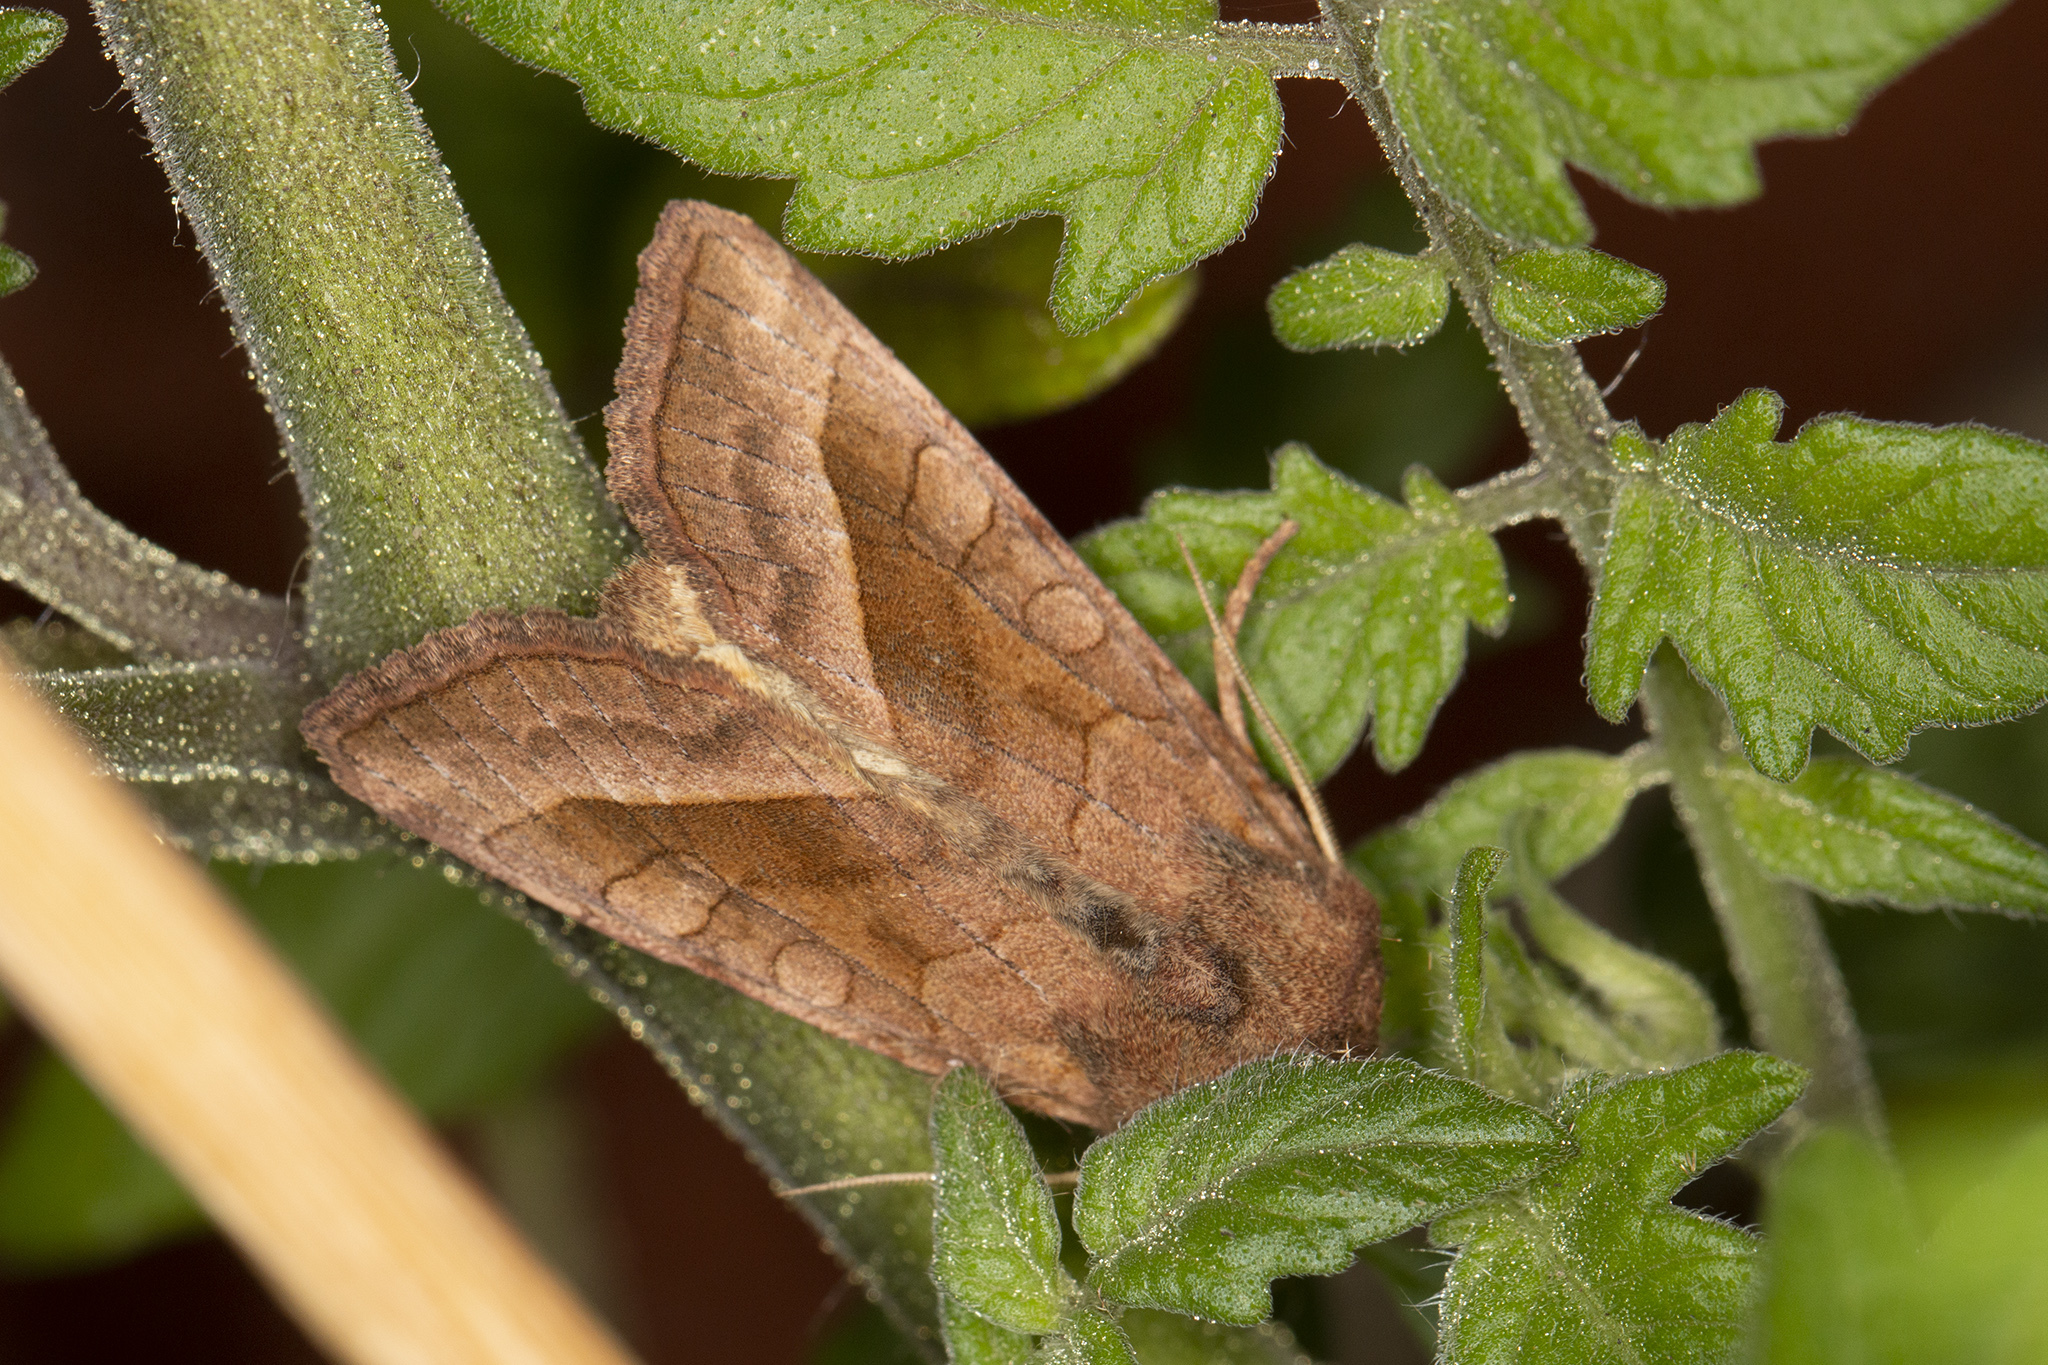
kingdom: Animalia
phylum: Arthropoda
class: Insecta
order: Lepidoptera
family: Noctuidae
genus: Hydraecia
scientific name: Hydraecia micacea
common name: Rosy rustic
